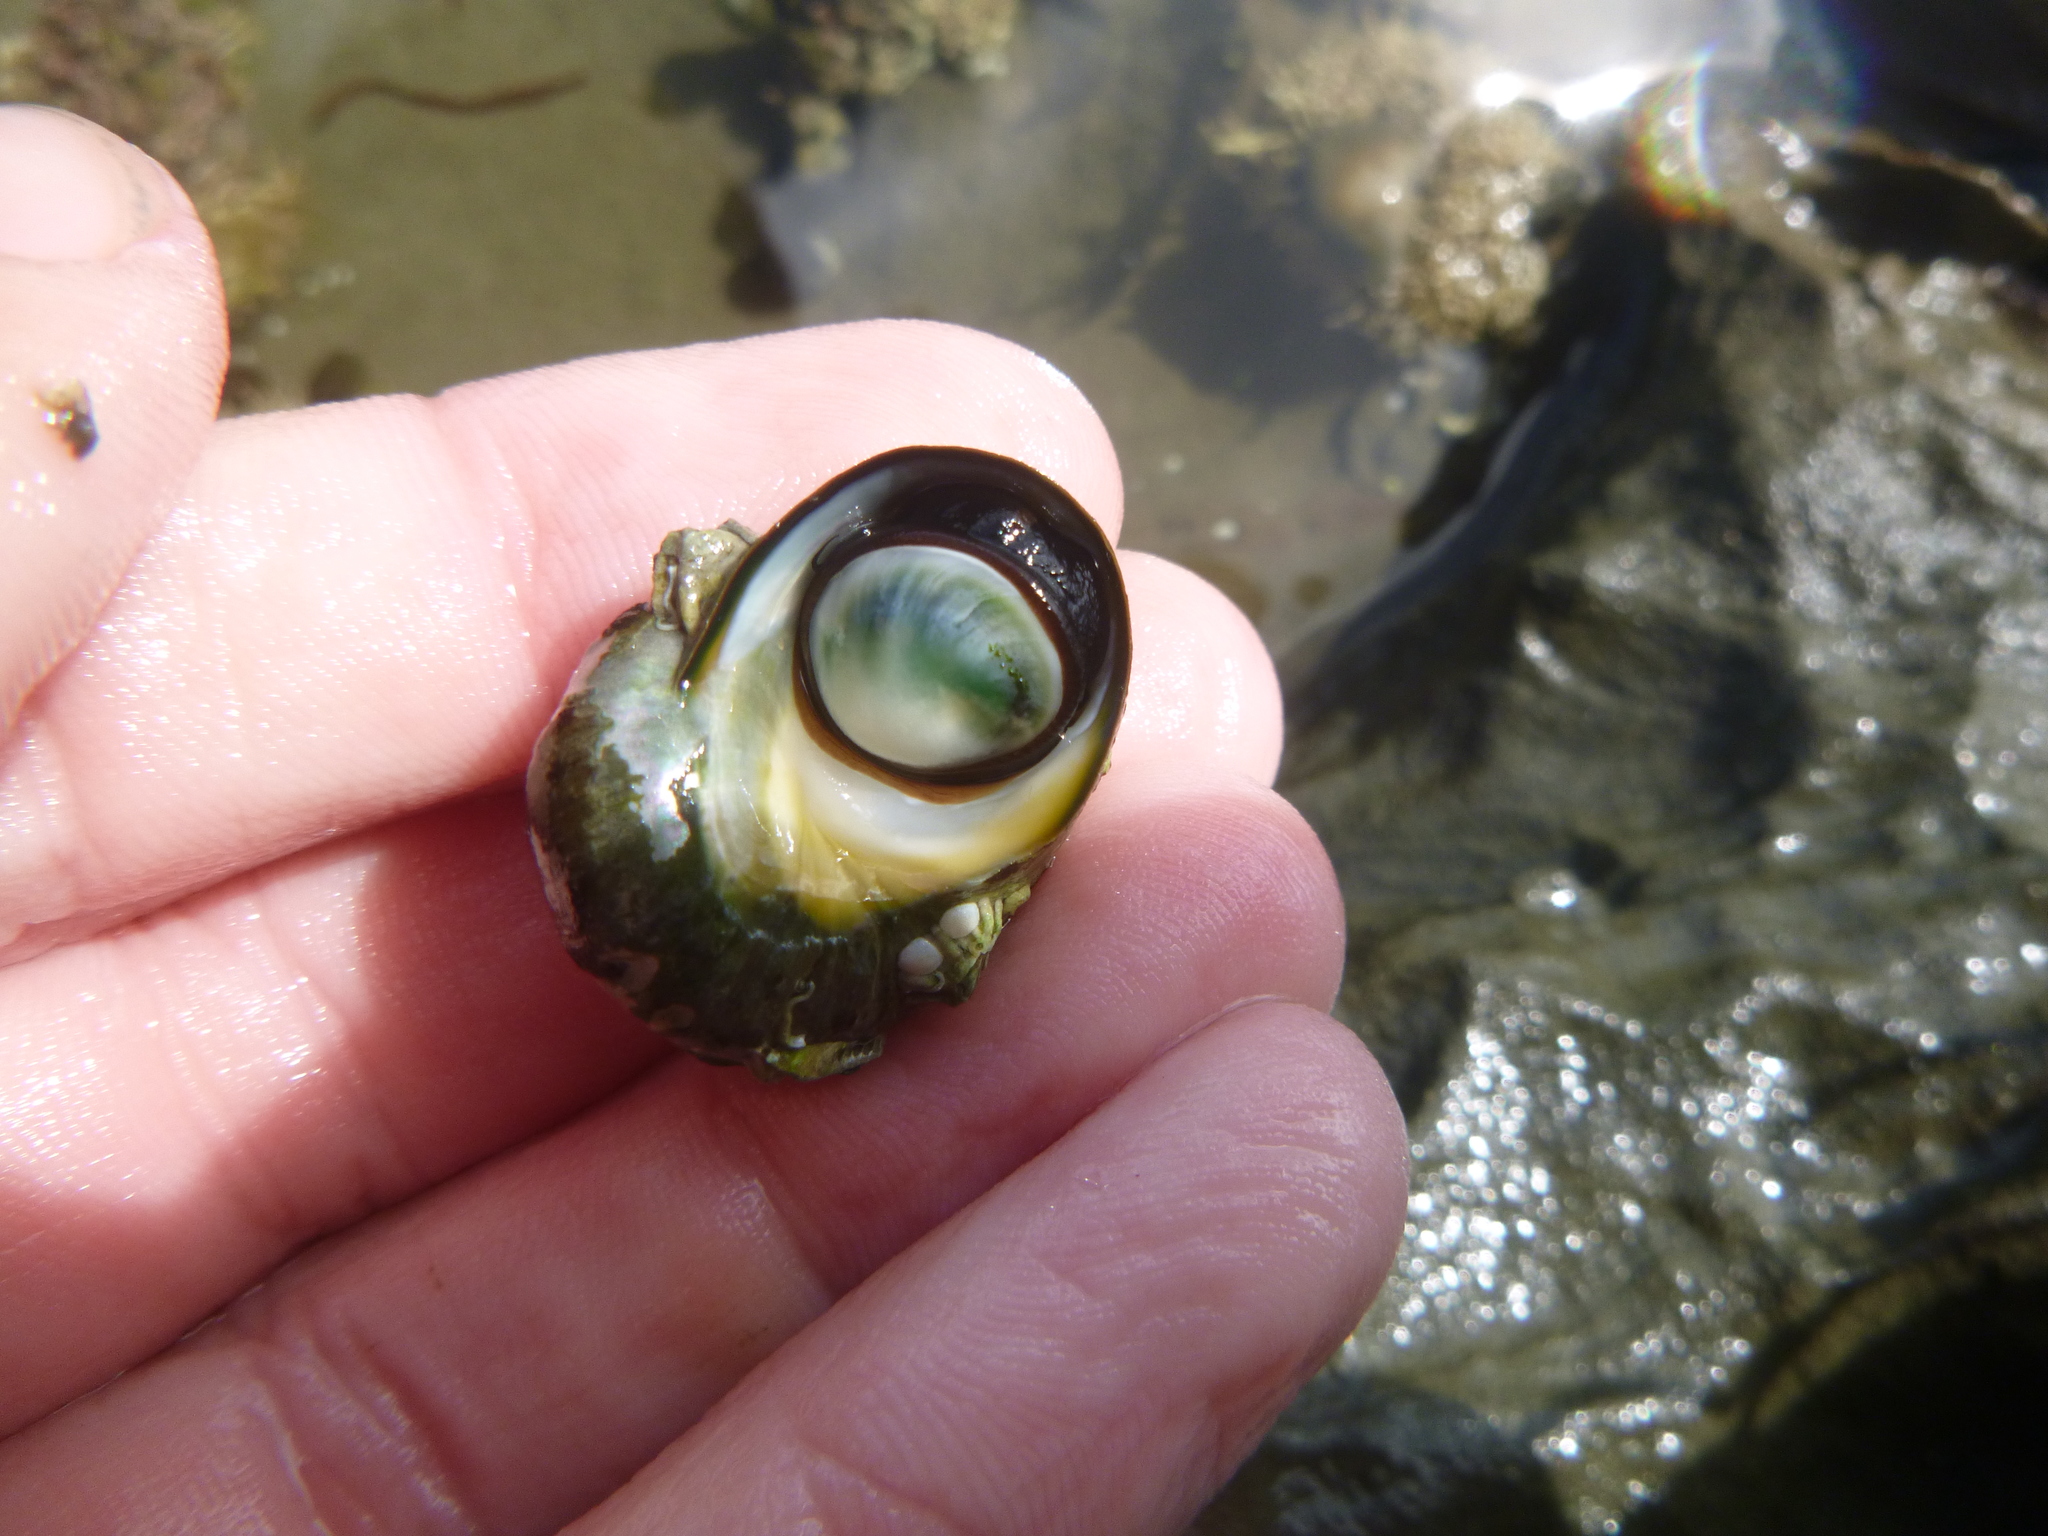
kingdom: Animalia
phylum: Mollusca
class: Gastropoda
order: Trochida
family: Turbinidae
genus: Lunella
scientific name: Lunella smaragda
